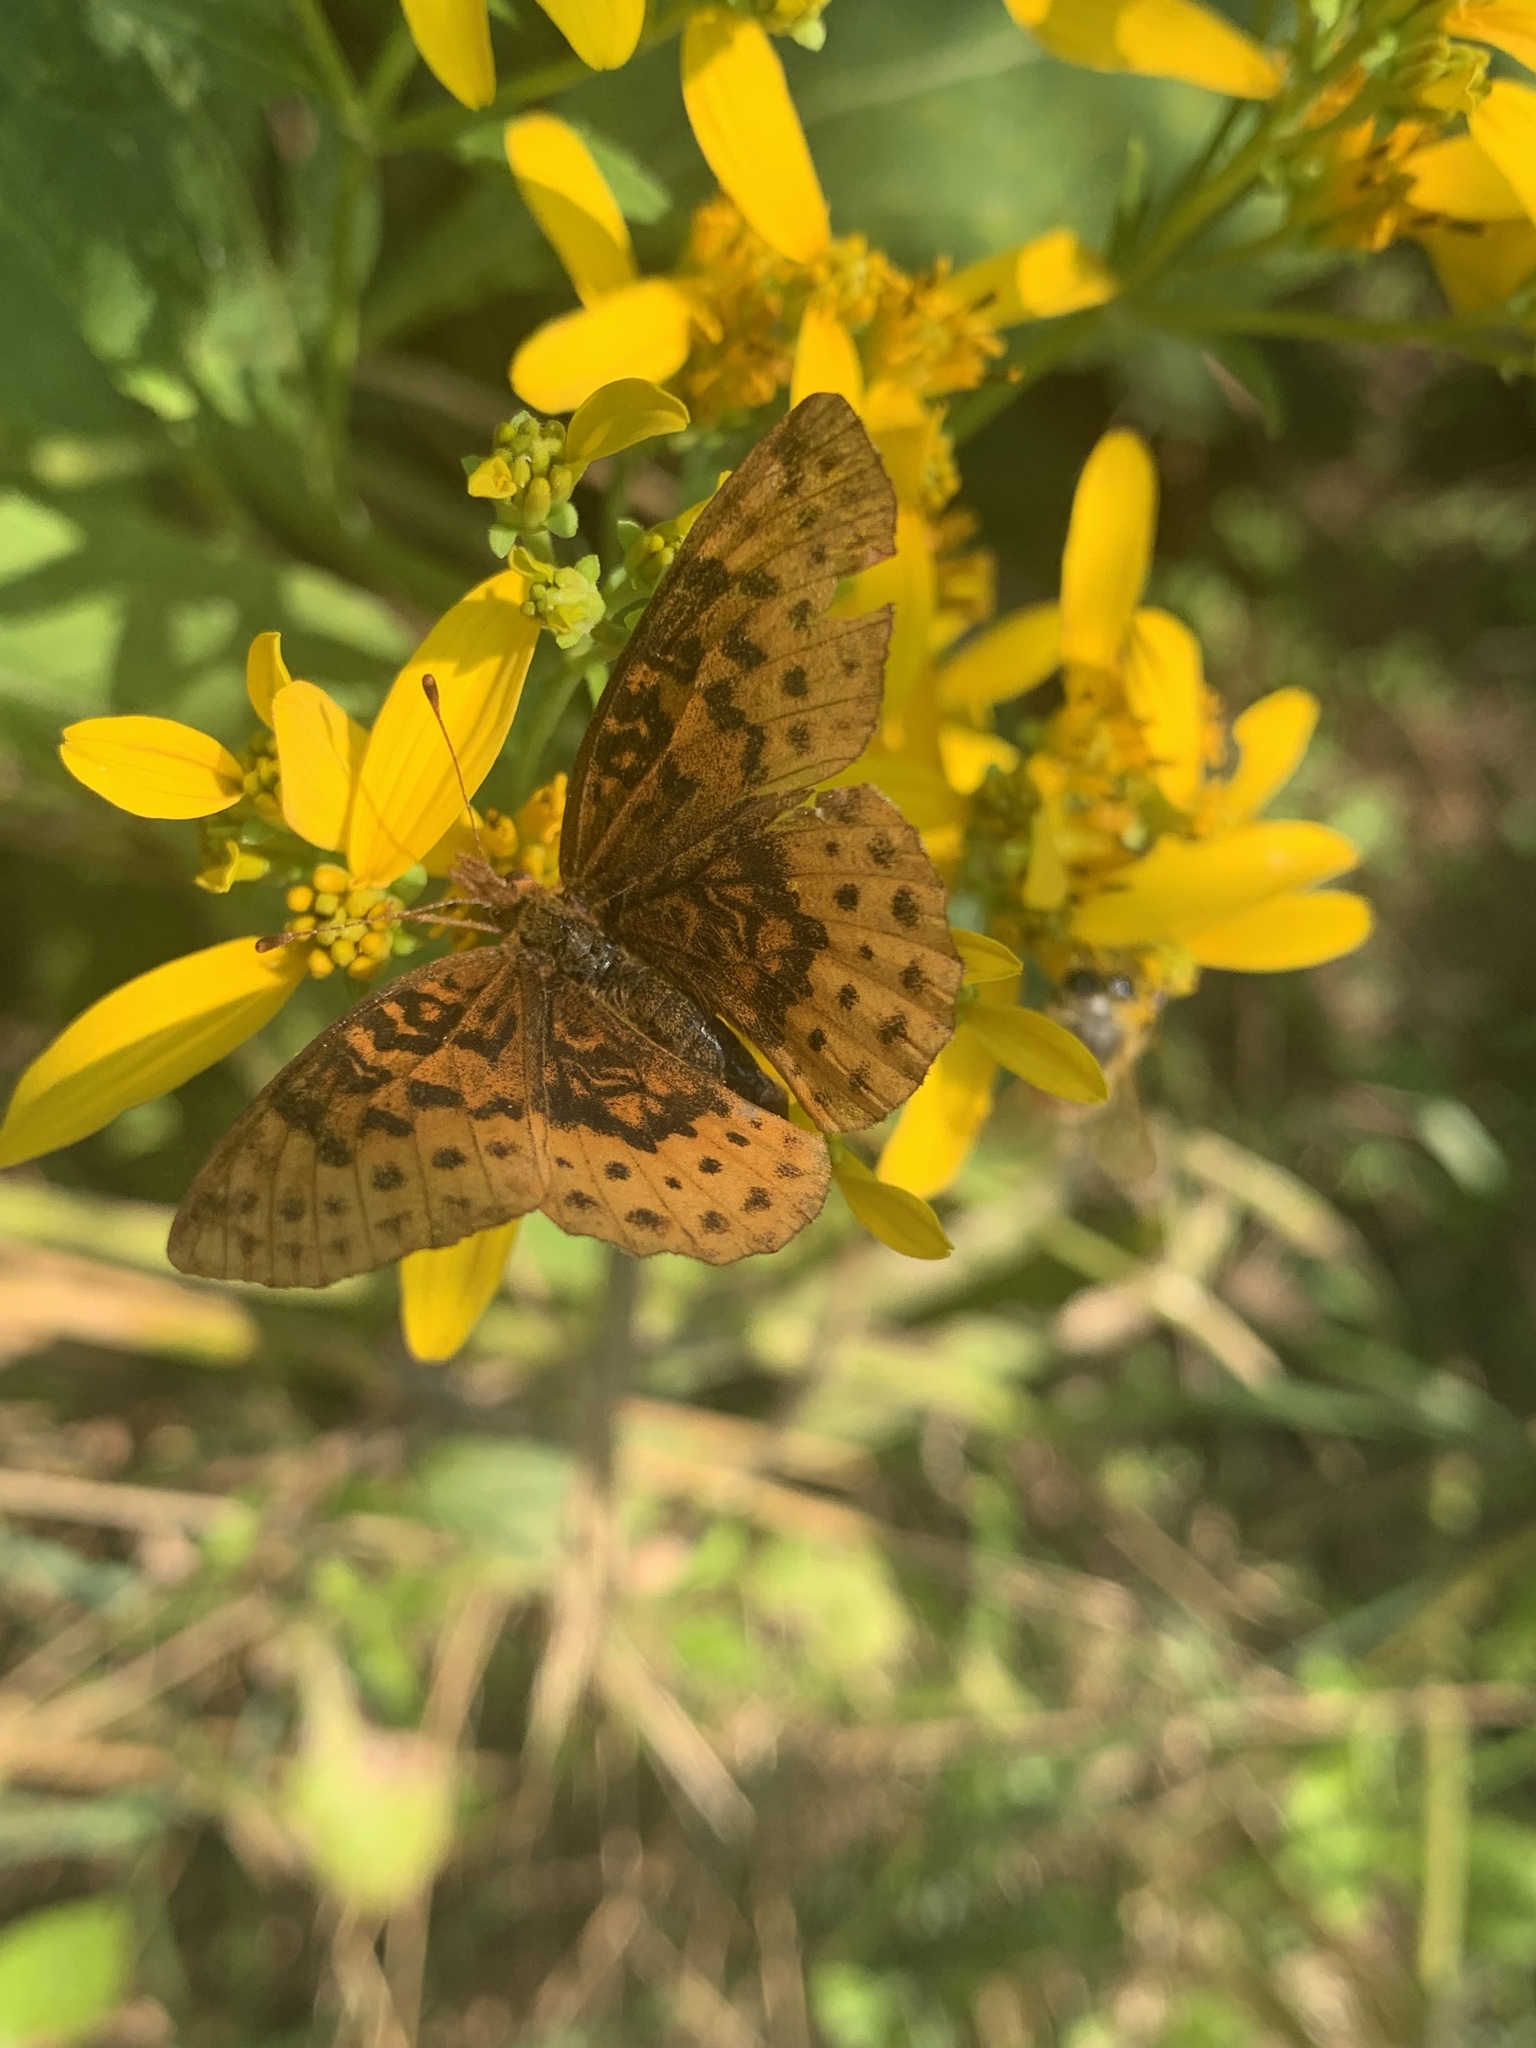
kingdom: Animalia
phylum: Arthropoda
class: Insecta
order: Lepidoptera
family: Nymphalidae
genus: Clossiana
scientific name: Clossiana toddi
